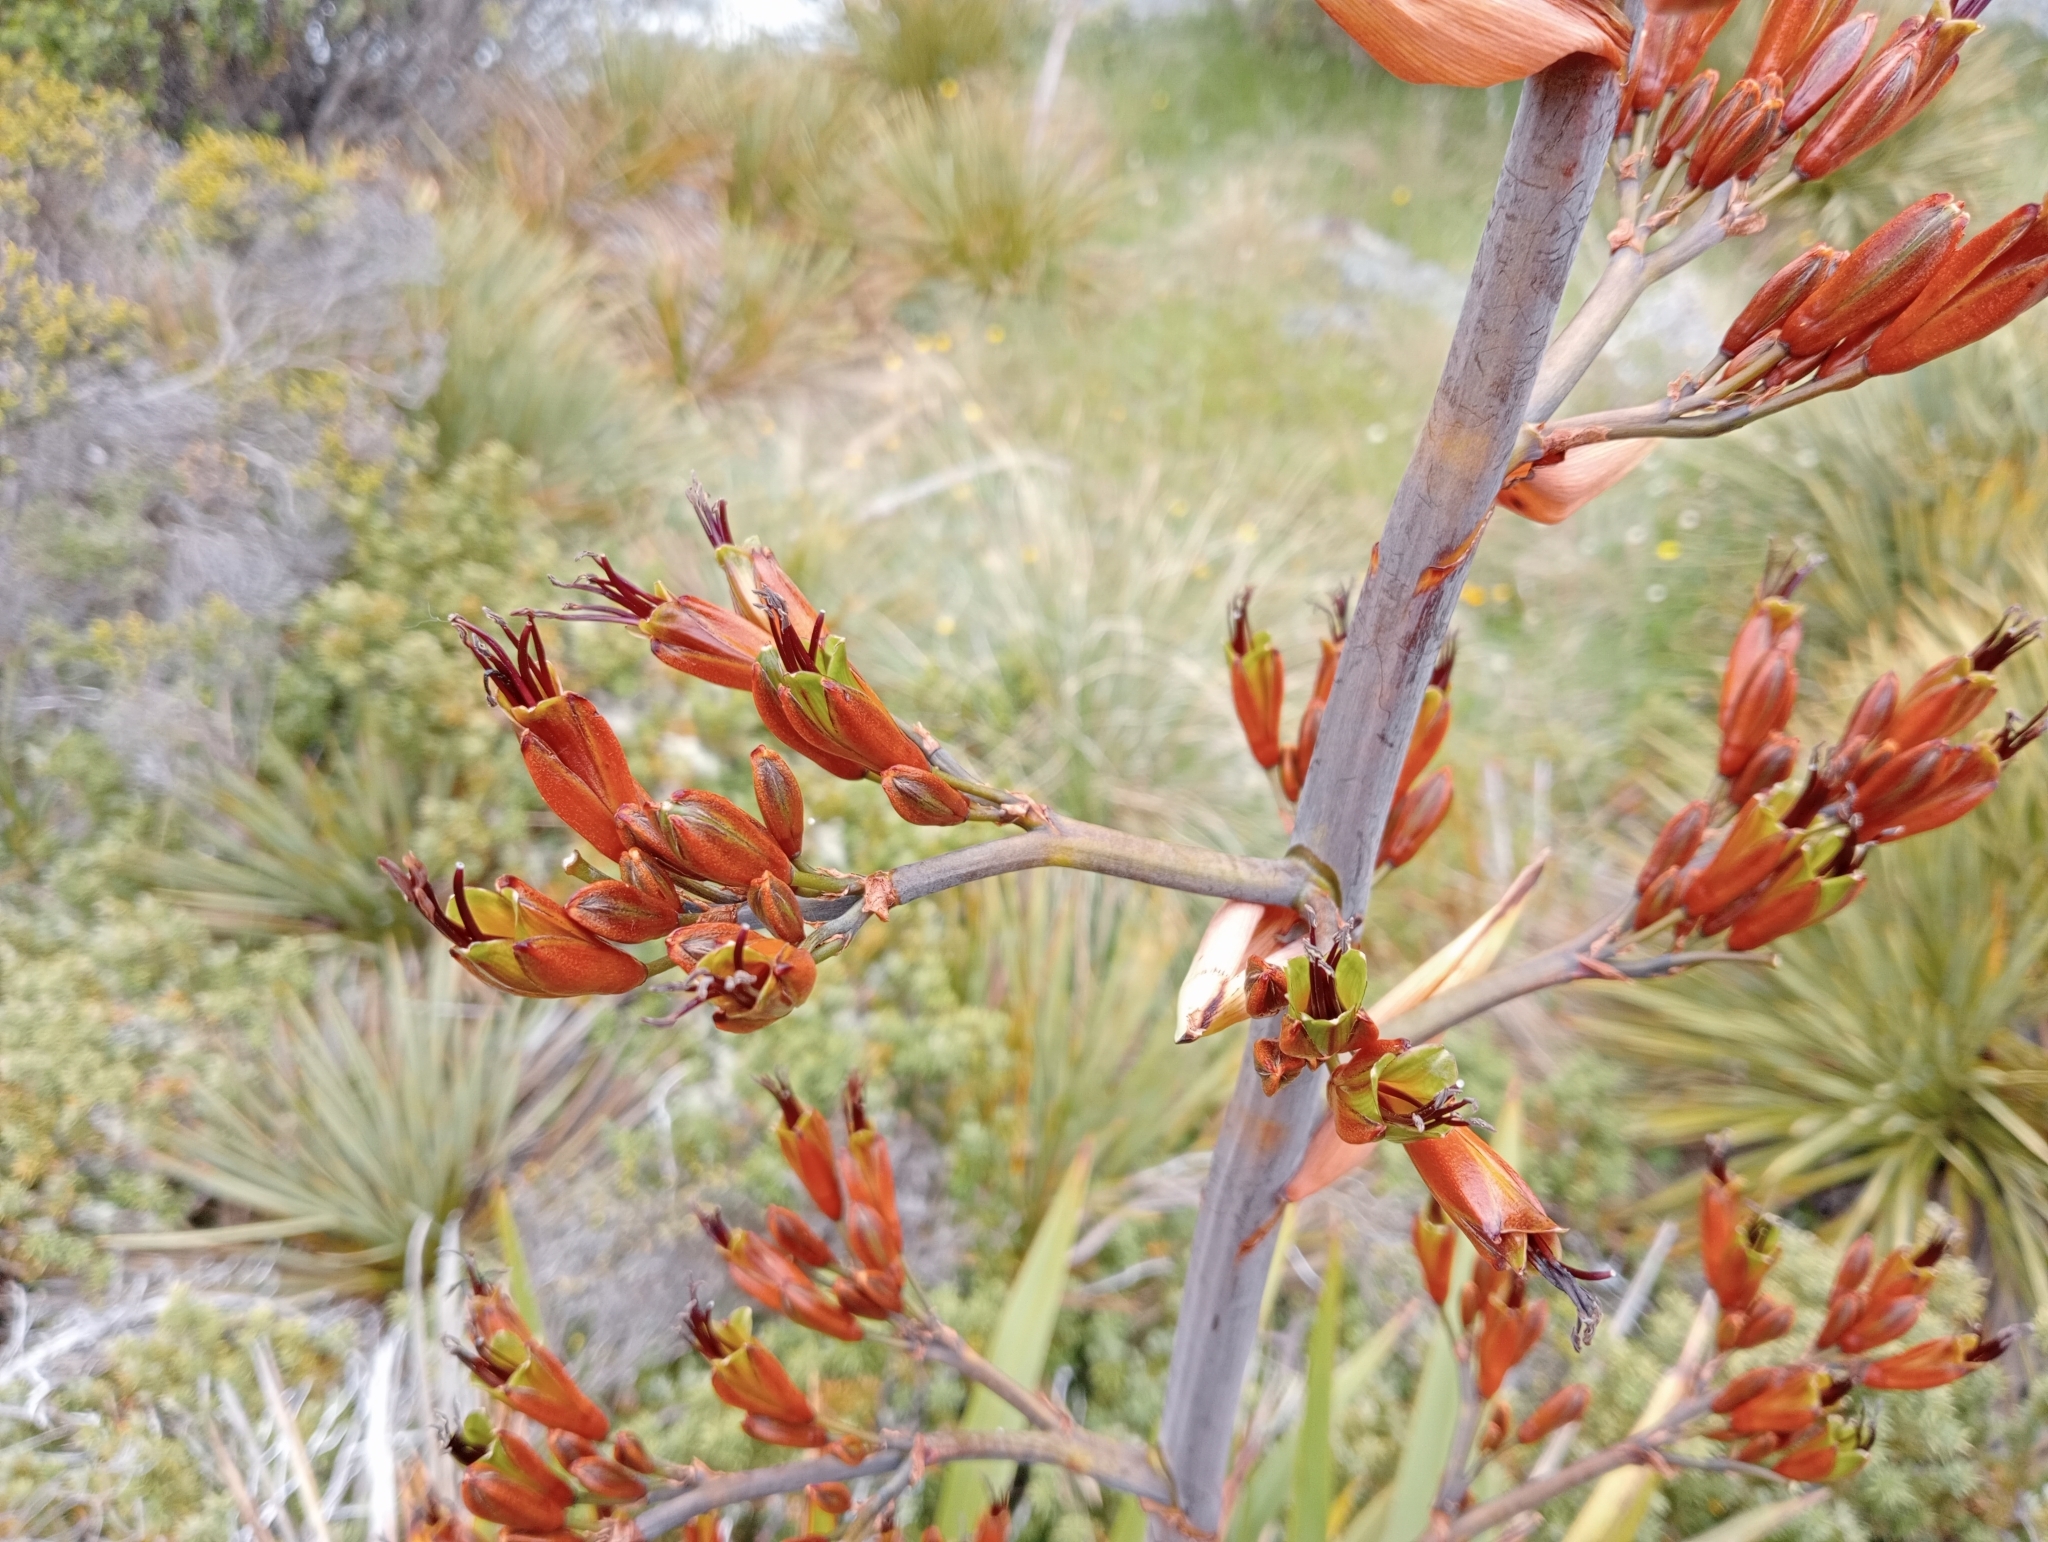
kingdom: Plantae
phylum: Tracheophyta
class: Liliopsida
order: Asparagales
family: Asphodelaceae
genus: Phormium
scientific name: Phormium colensoi
